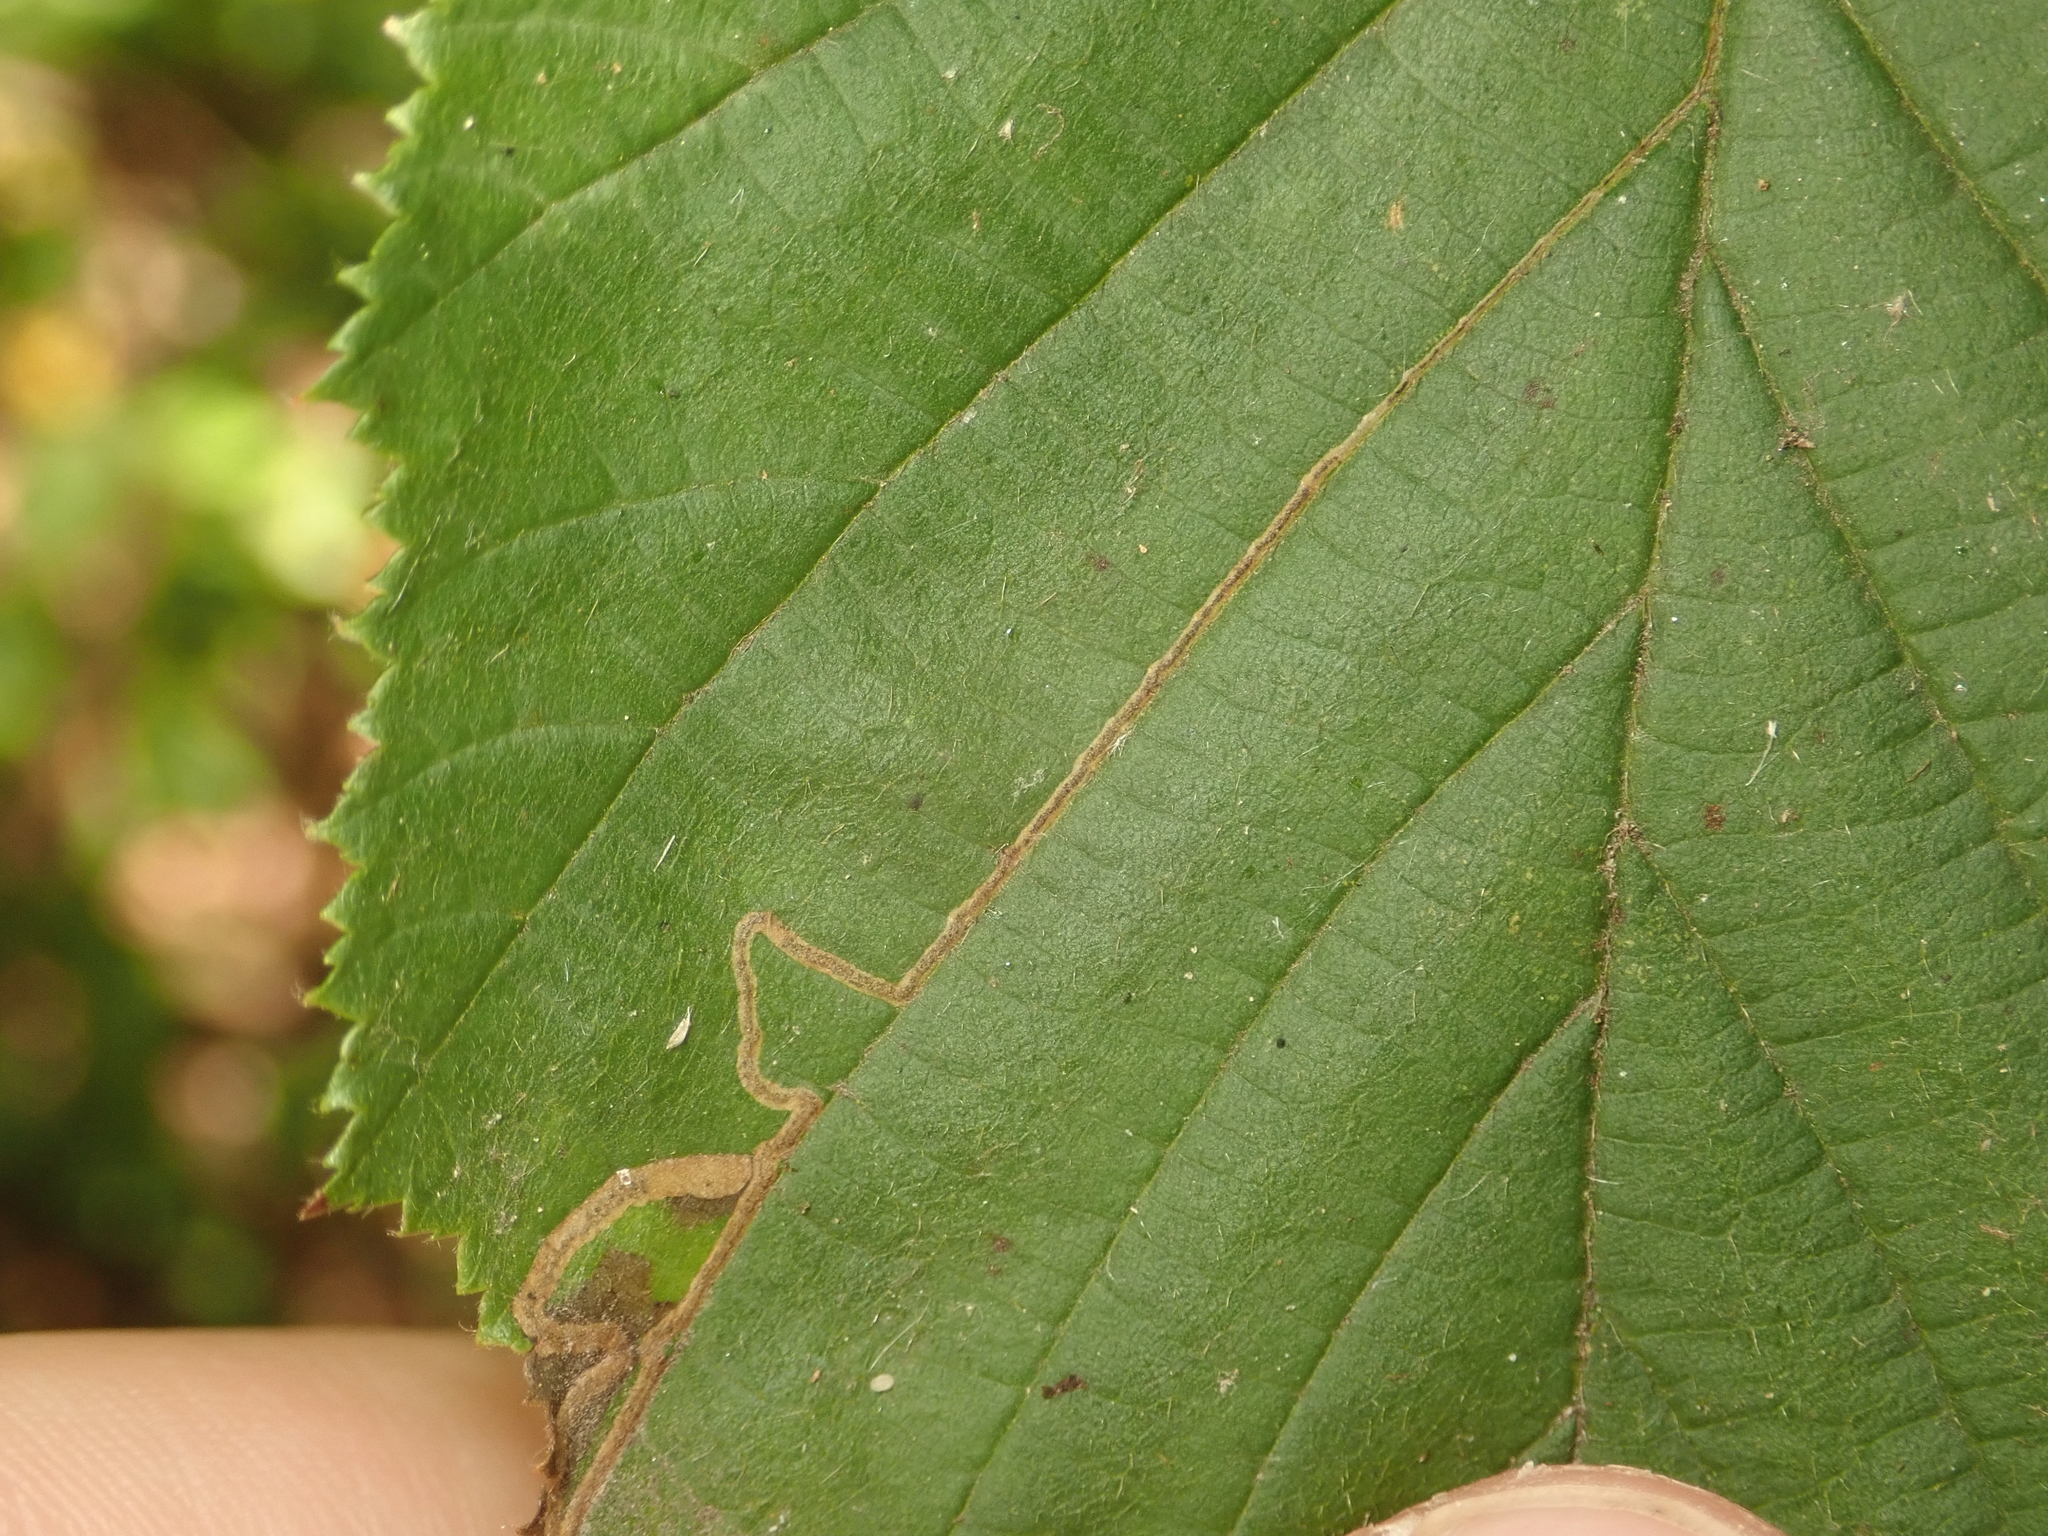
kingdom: Animalia
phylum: Arthropoda
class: Insecta
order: Lepidoptera
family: Nepticulidae
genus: Stigmella
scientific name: Stigmella microtheriella
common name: Nut-tree pigmy
